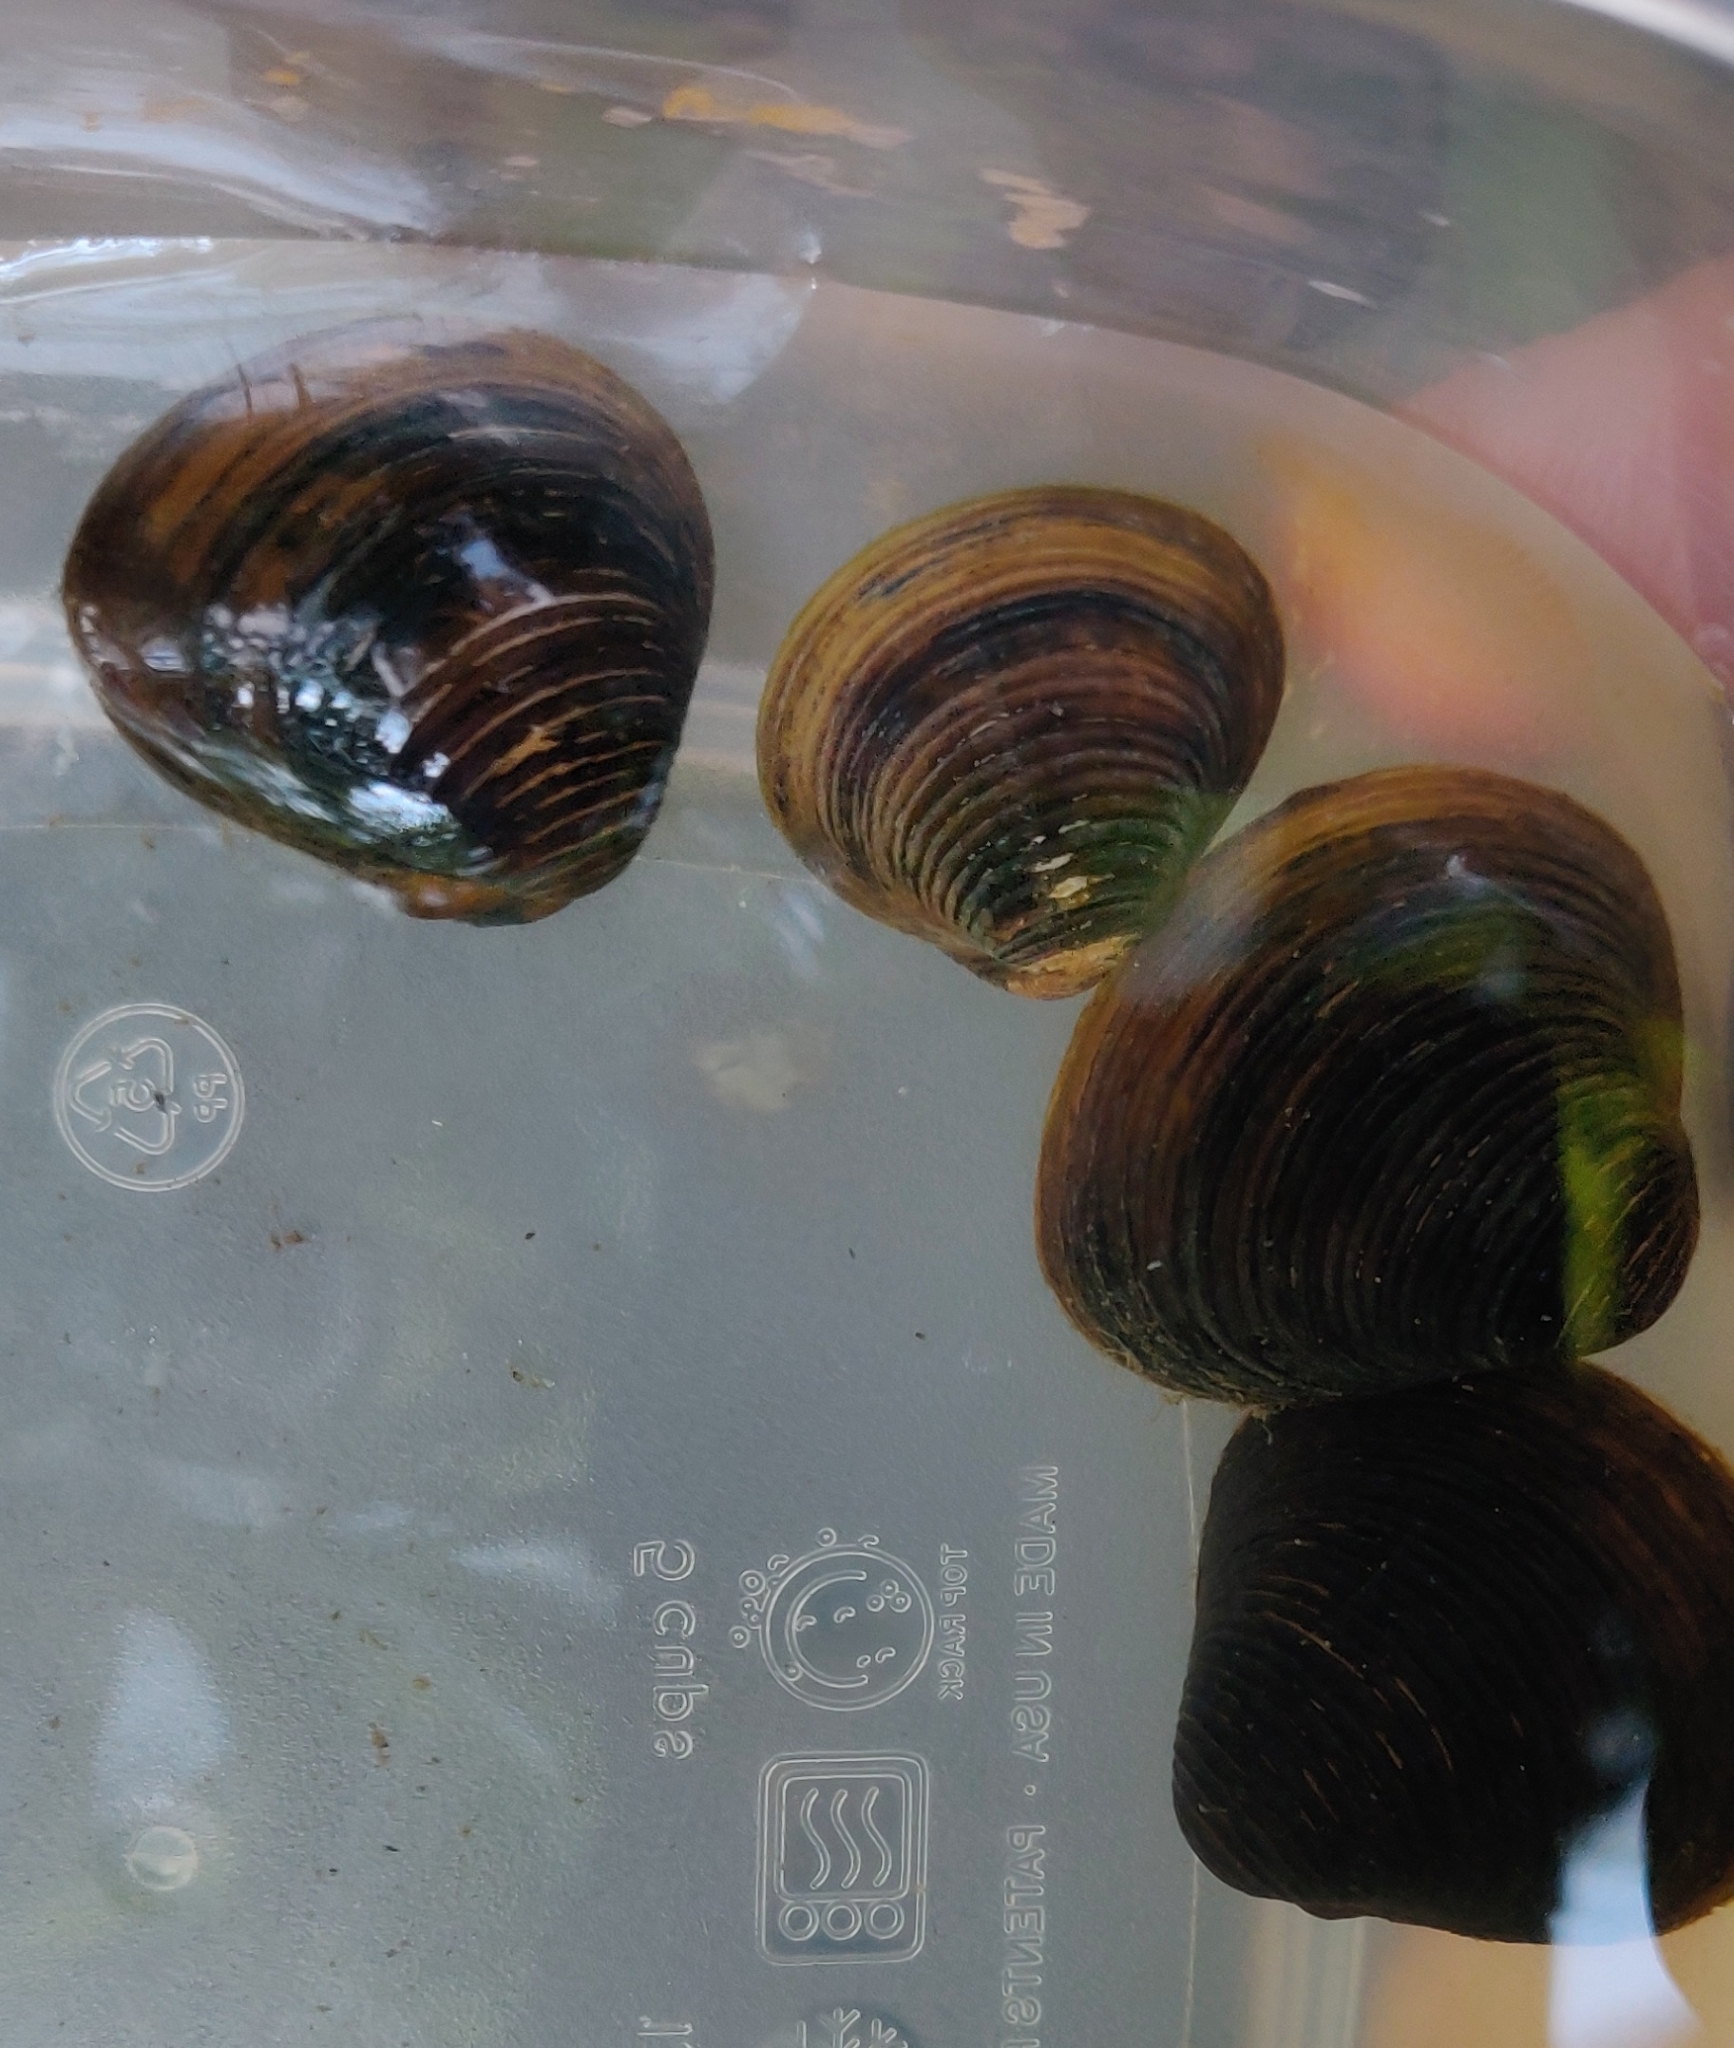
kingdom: Animalia
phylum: Mollusca
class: Bivalvia
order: Venerida
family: Cyrenidae
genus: Corbicula
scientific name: Corbicula fluminea
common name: Asian clam
